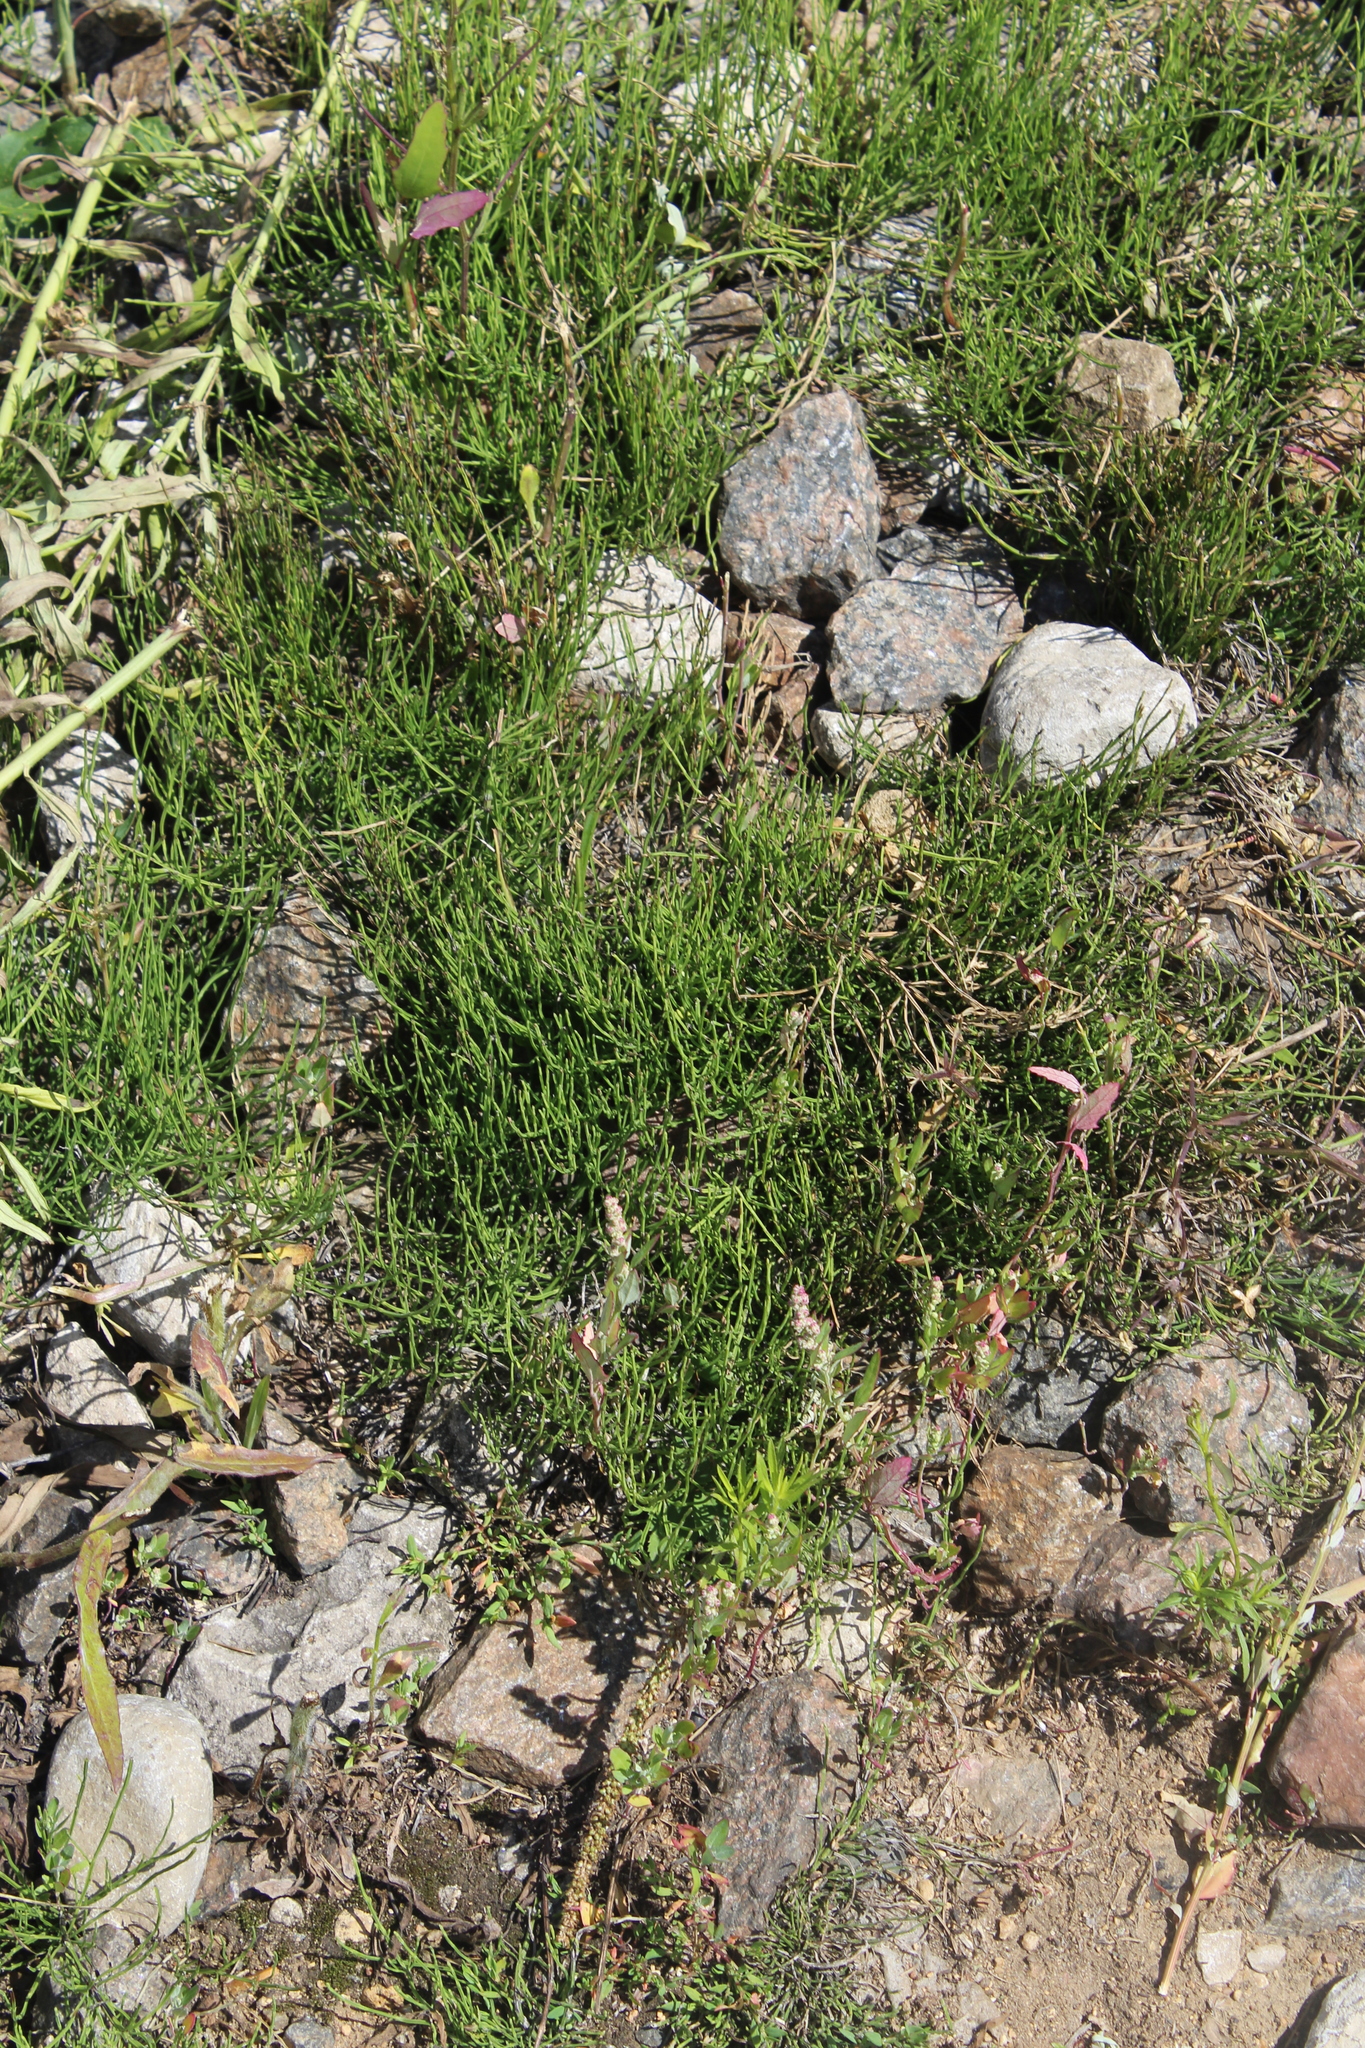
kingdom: Plantae
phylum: Tracheophyta
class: Polypodiopsida
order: Equisetales
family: Equisetaceae
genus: Equisetum
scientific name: Equisetum arvense
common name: Field horsetail
